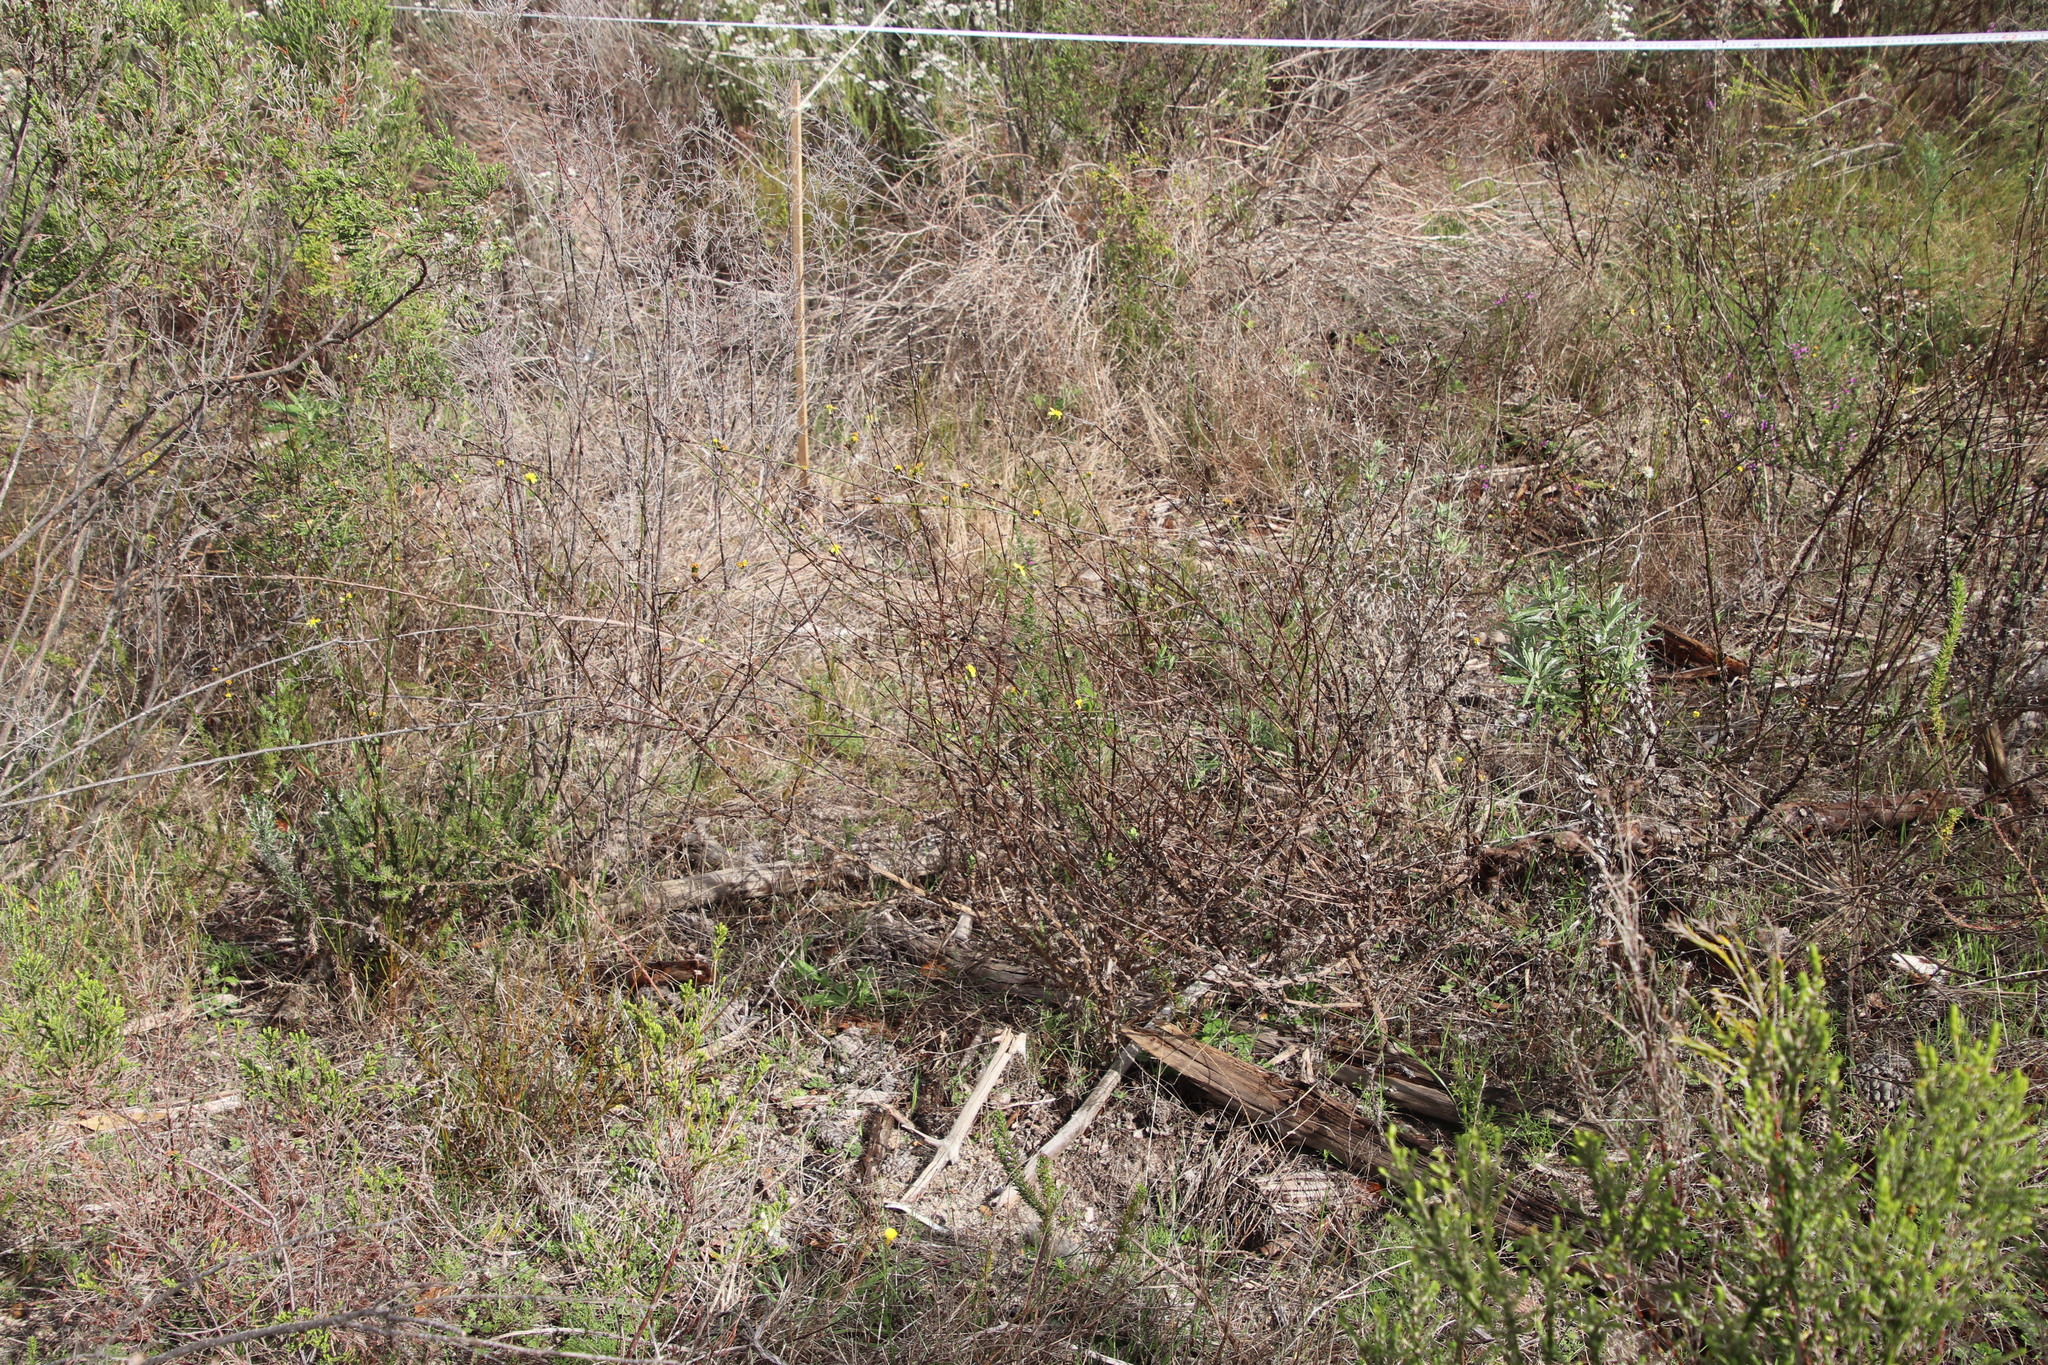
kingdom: Plantae
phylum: Tracheophyta
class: Magnoliopsida
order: Asterales
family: Asteraceae
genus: Senecio
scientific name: Senecio pubigerus
